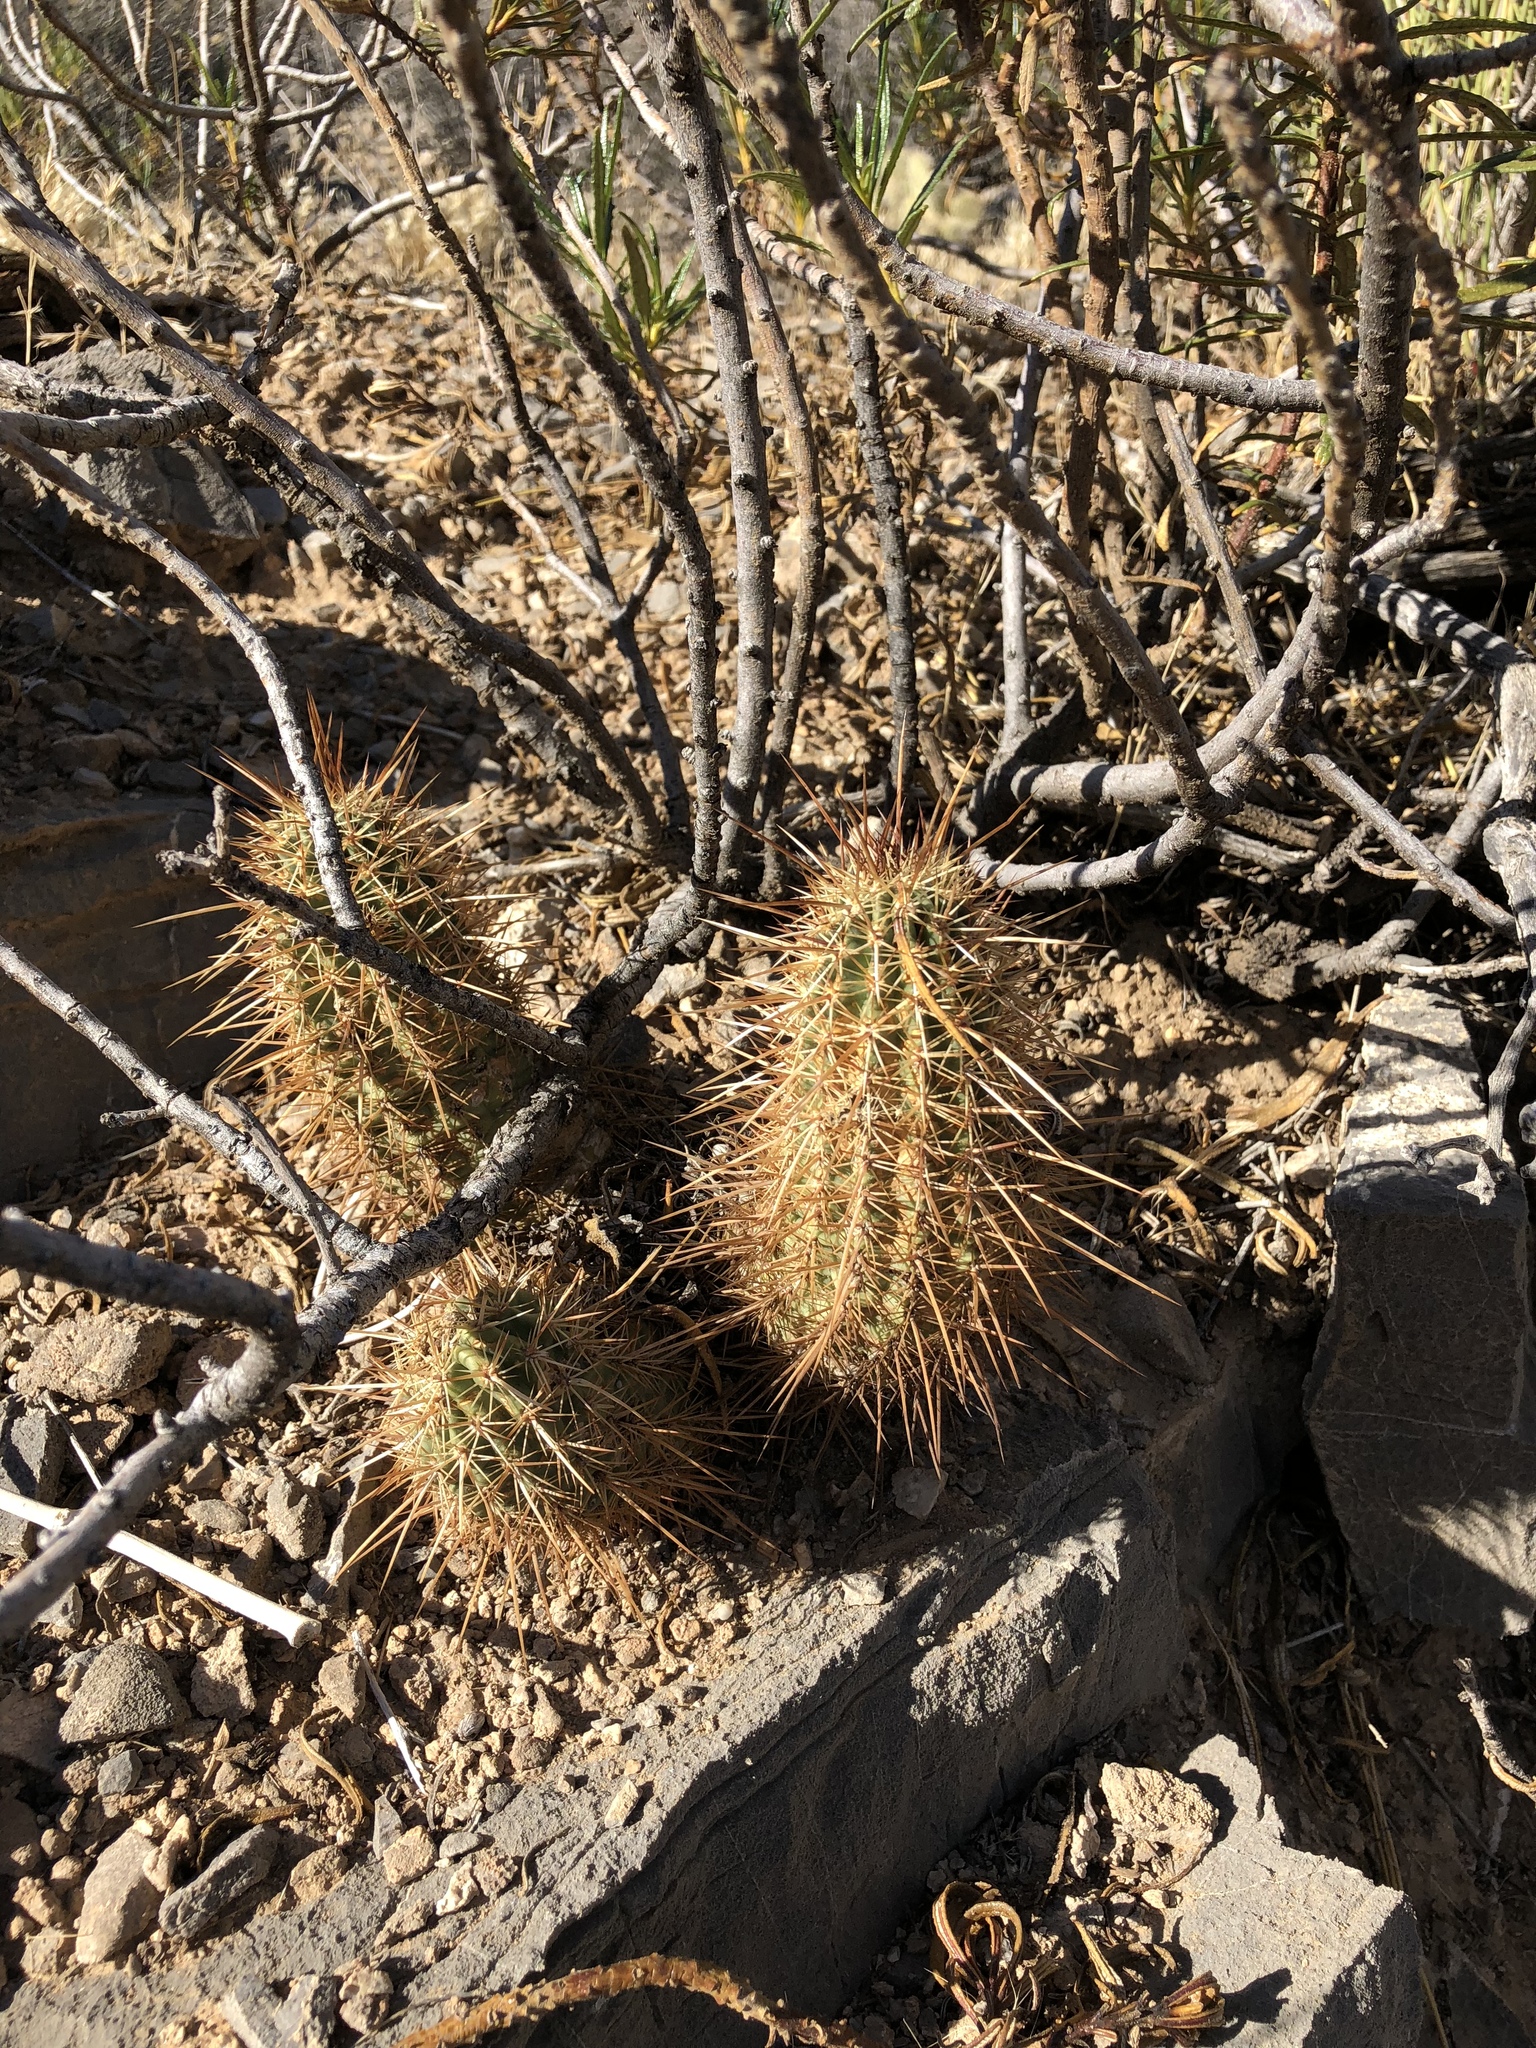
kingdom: Plantae
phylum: Tracheophyta
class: Magnoliopsida
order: Caryophyllales
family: Cactaceae
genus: Echinocereus
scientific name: Echinocereus engelmannii
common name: Engelmann's hedgehog cactus
